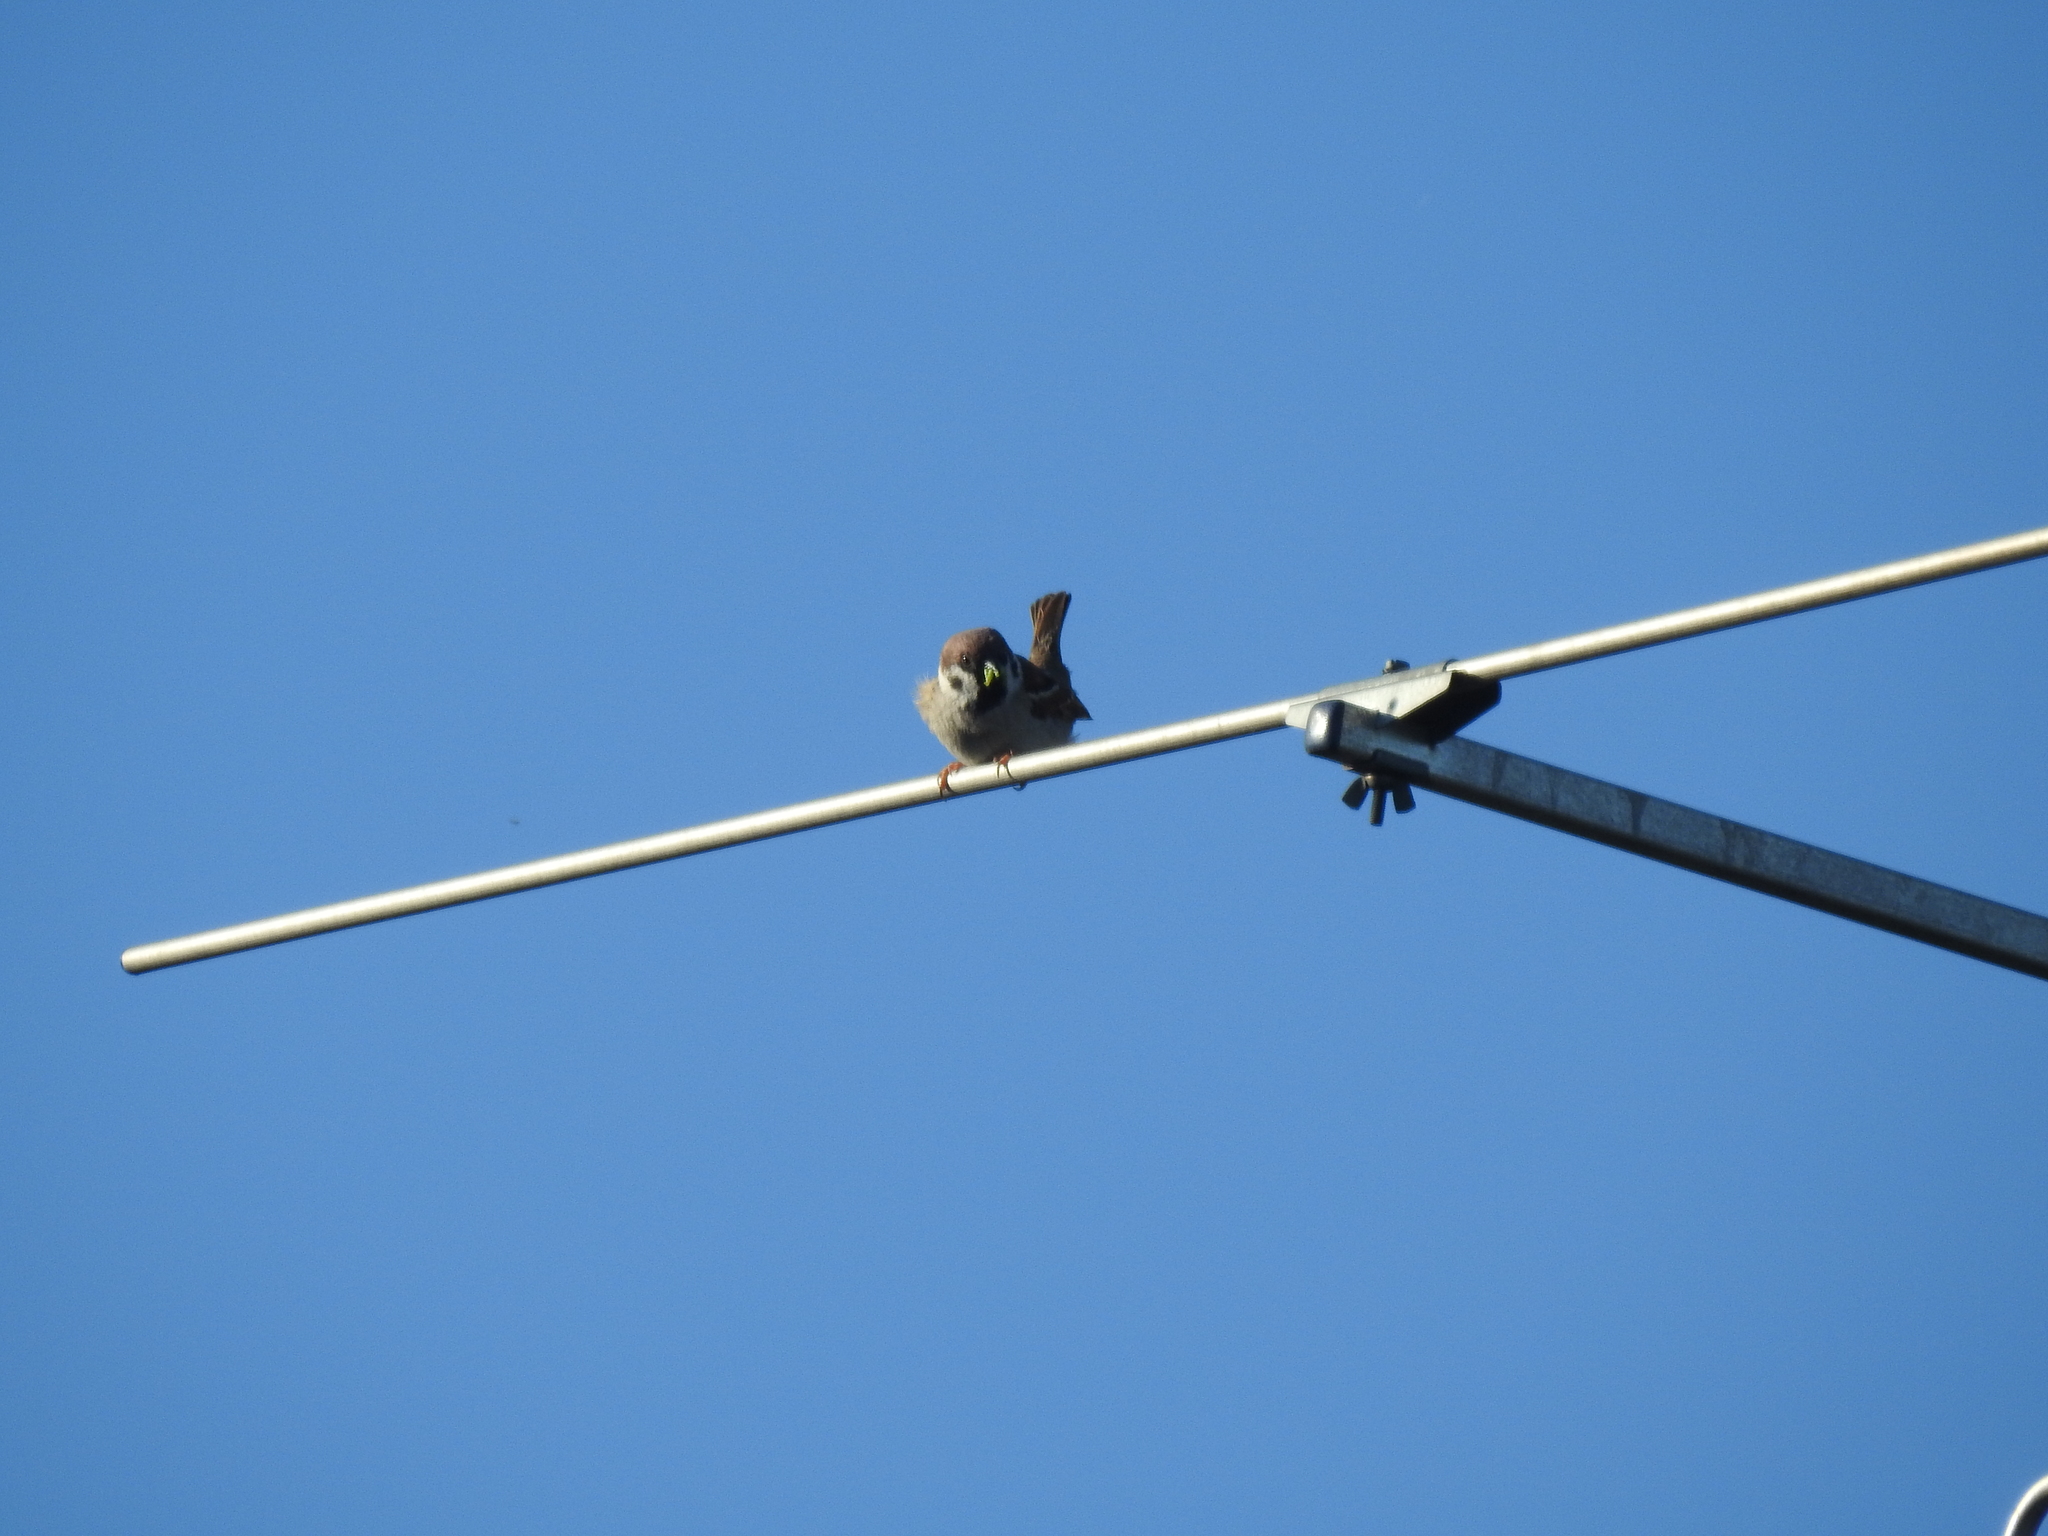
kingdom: Animalia
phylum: Chordata
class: Aves
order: Passeriformes
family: Passeridae
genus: Passer
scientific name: Passer montanus
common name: Eurasian tree sparrow
